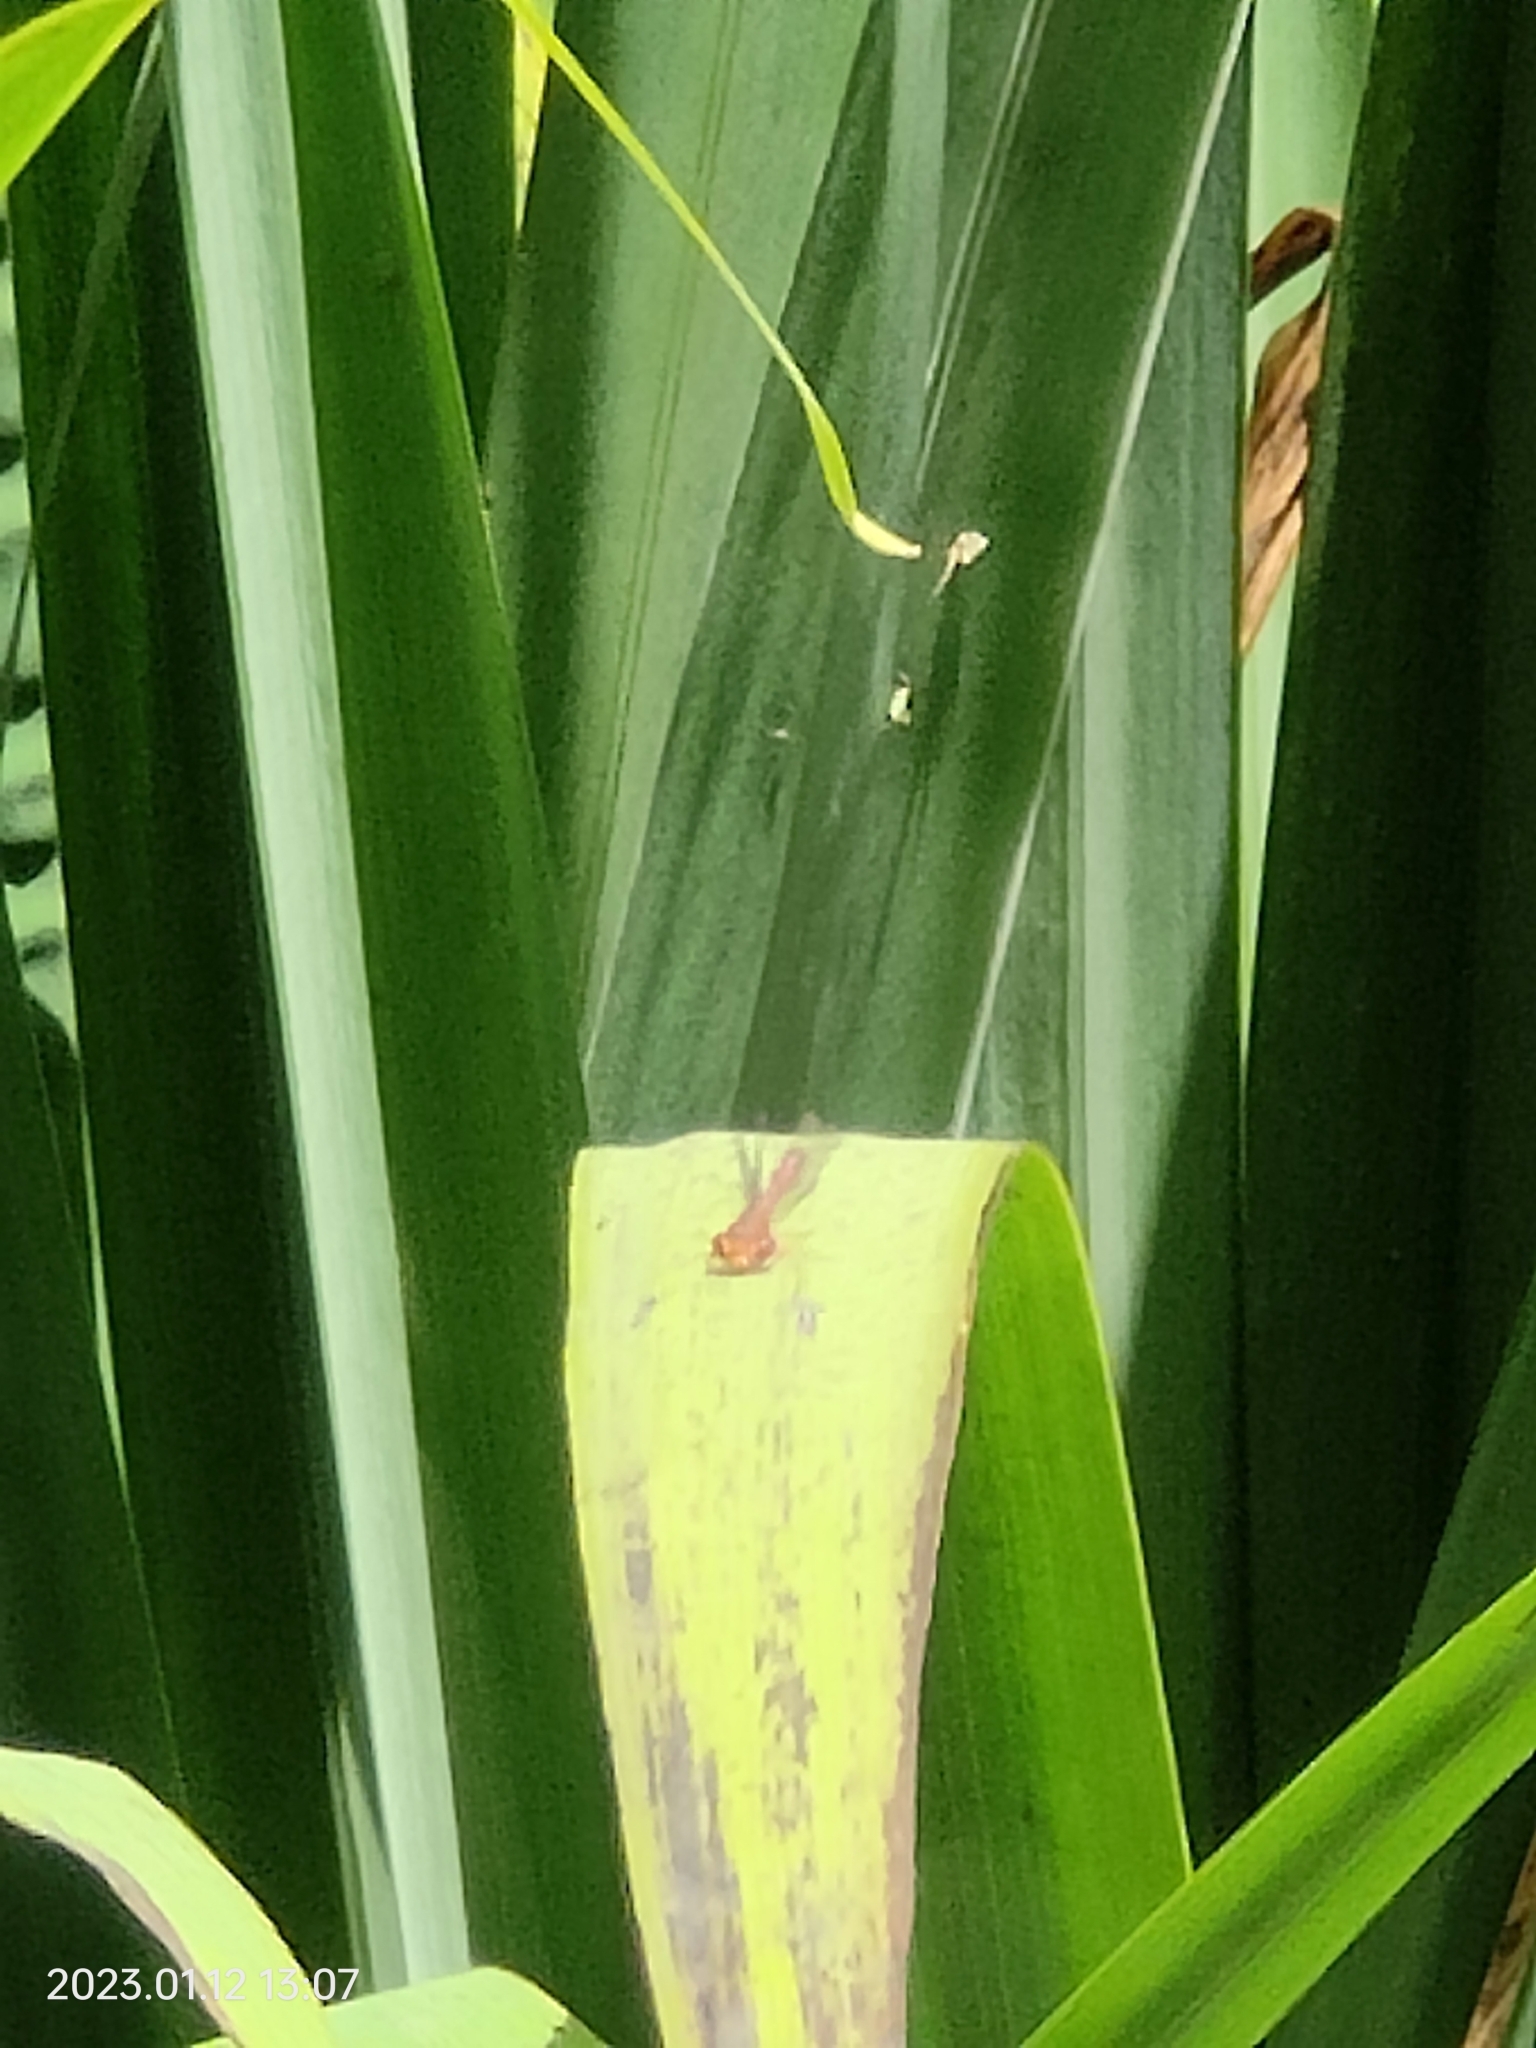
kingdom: Animalia
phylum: Arthropoda
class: Insecta
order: Odonata
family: Coenagrionidae
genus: Xanthocnemis
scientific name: Xanthocnemis zealandica
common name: Common redcoat damselfly
